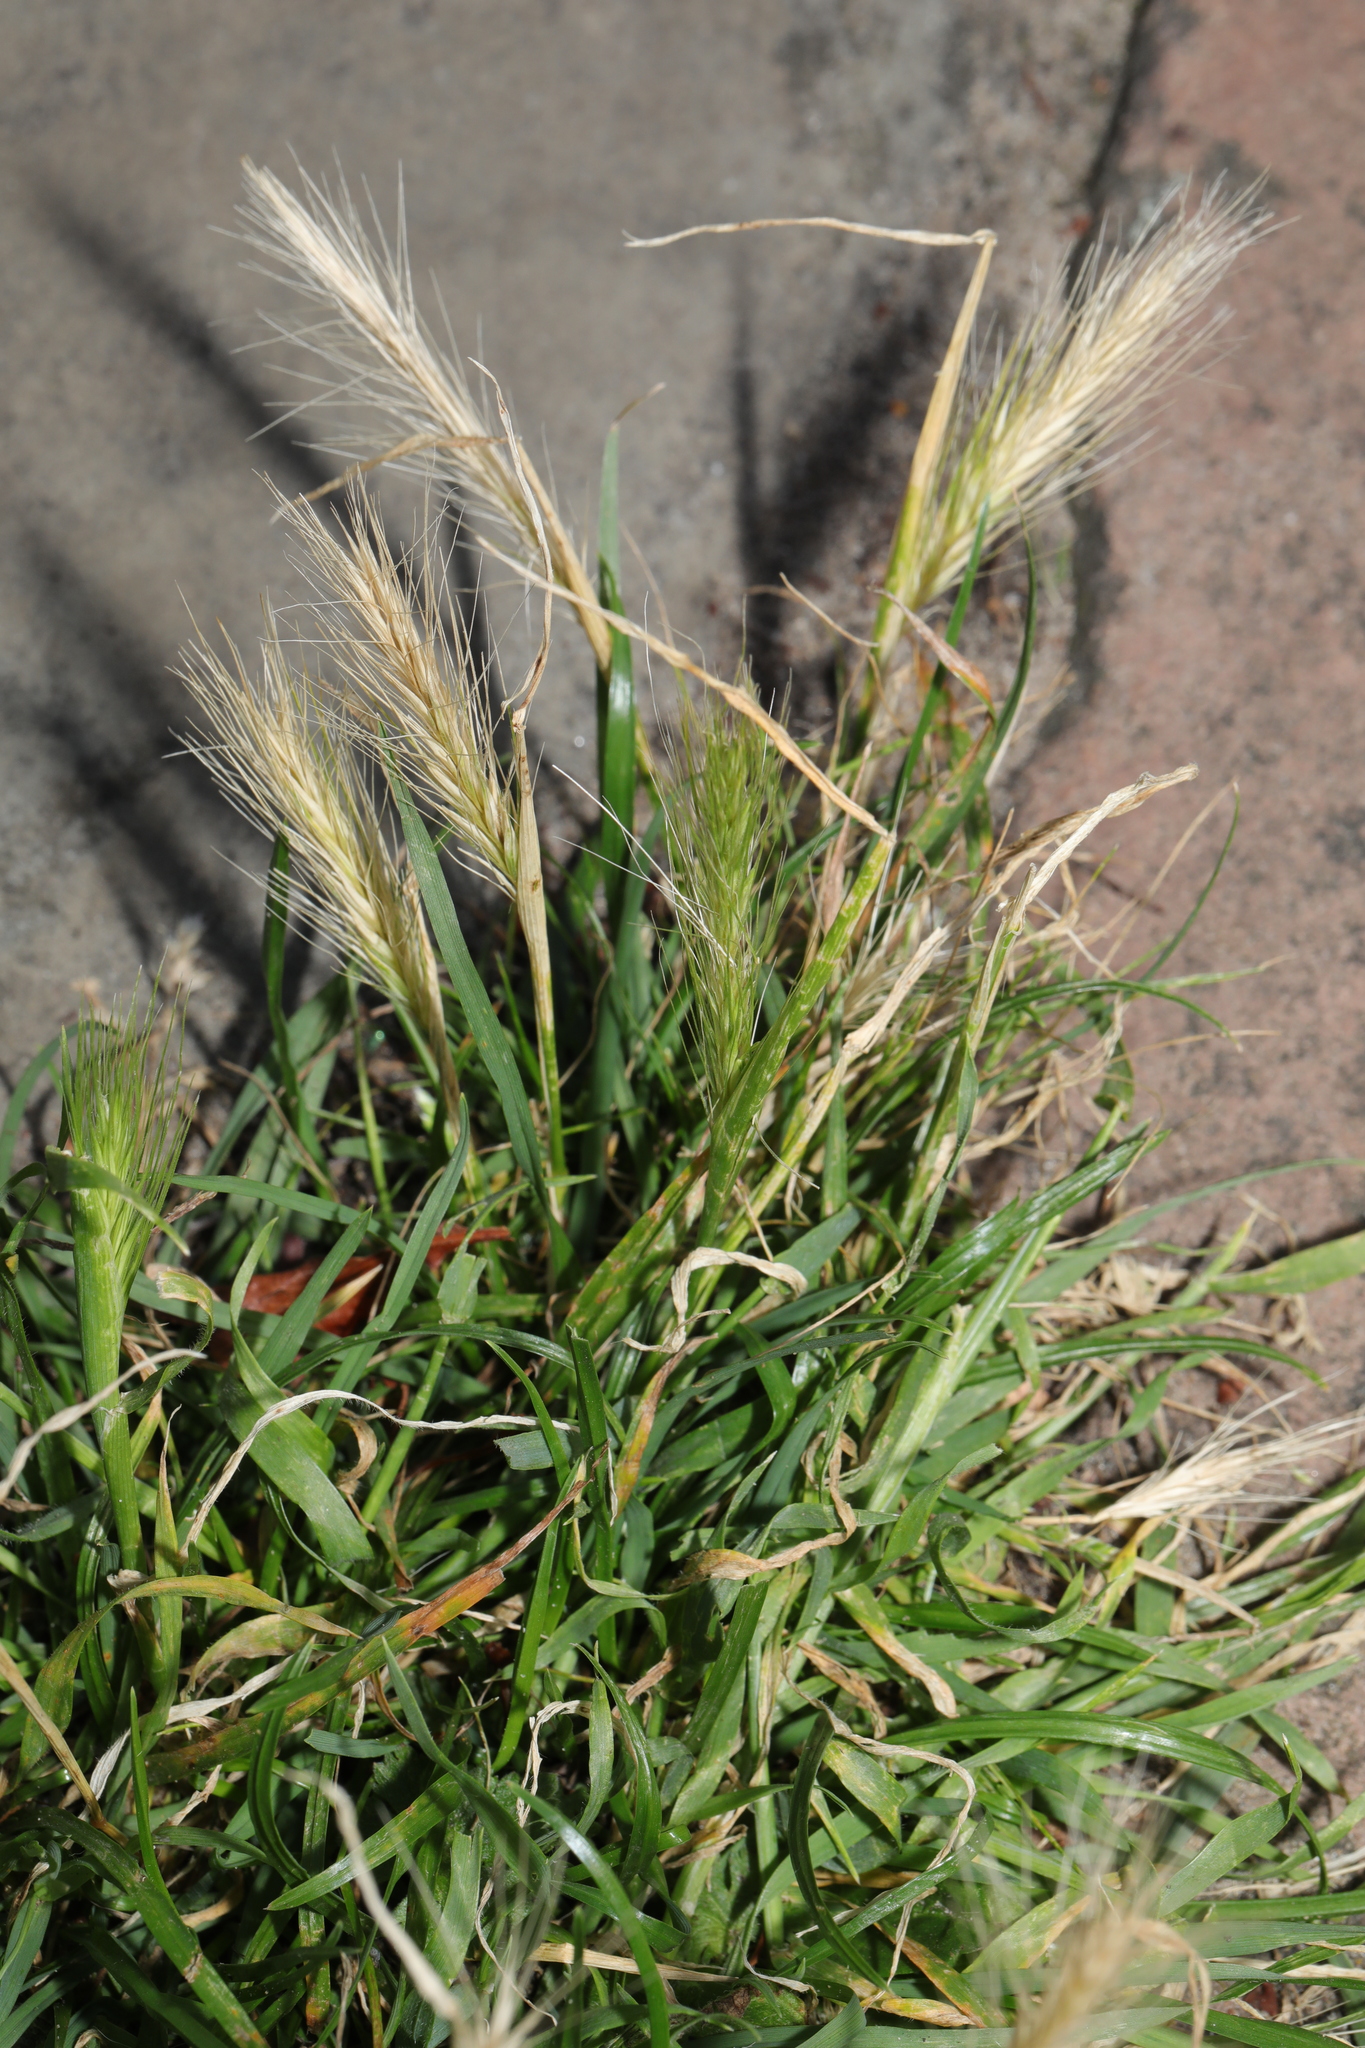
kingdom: Plantae
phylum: Tracheophyta
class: Liliopsida
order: Poales
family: Poaceae
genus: Hordeum
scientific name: Hordeum murinum
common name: Wall barley
